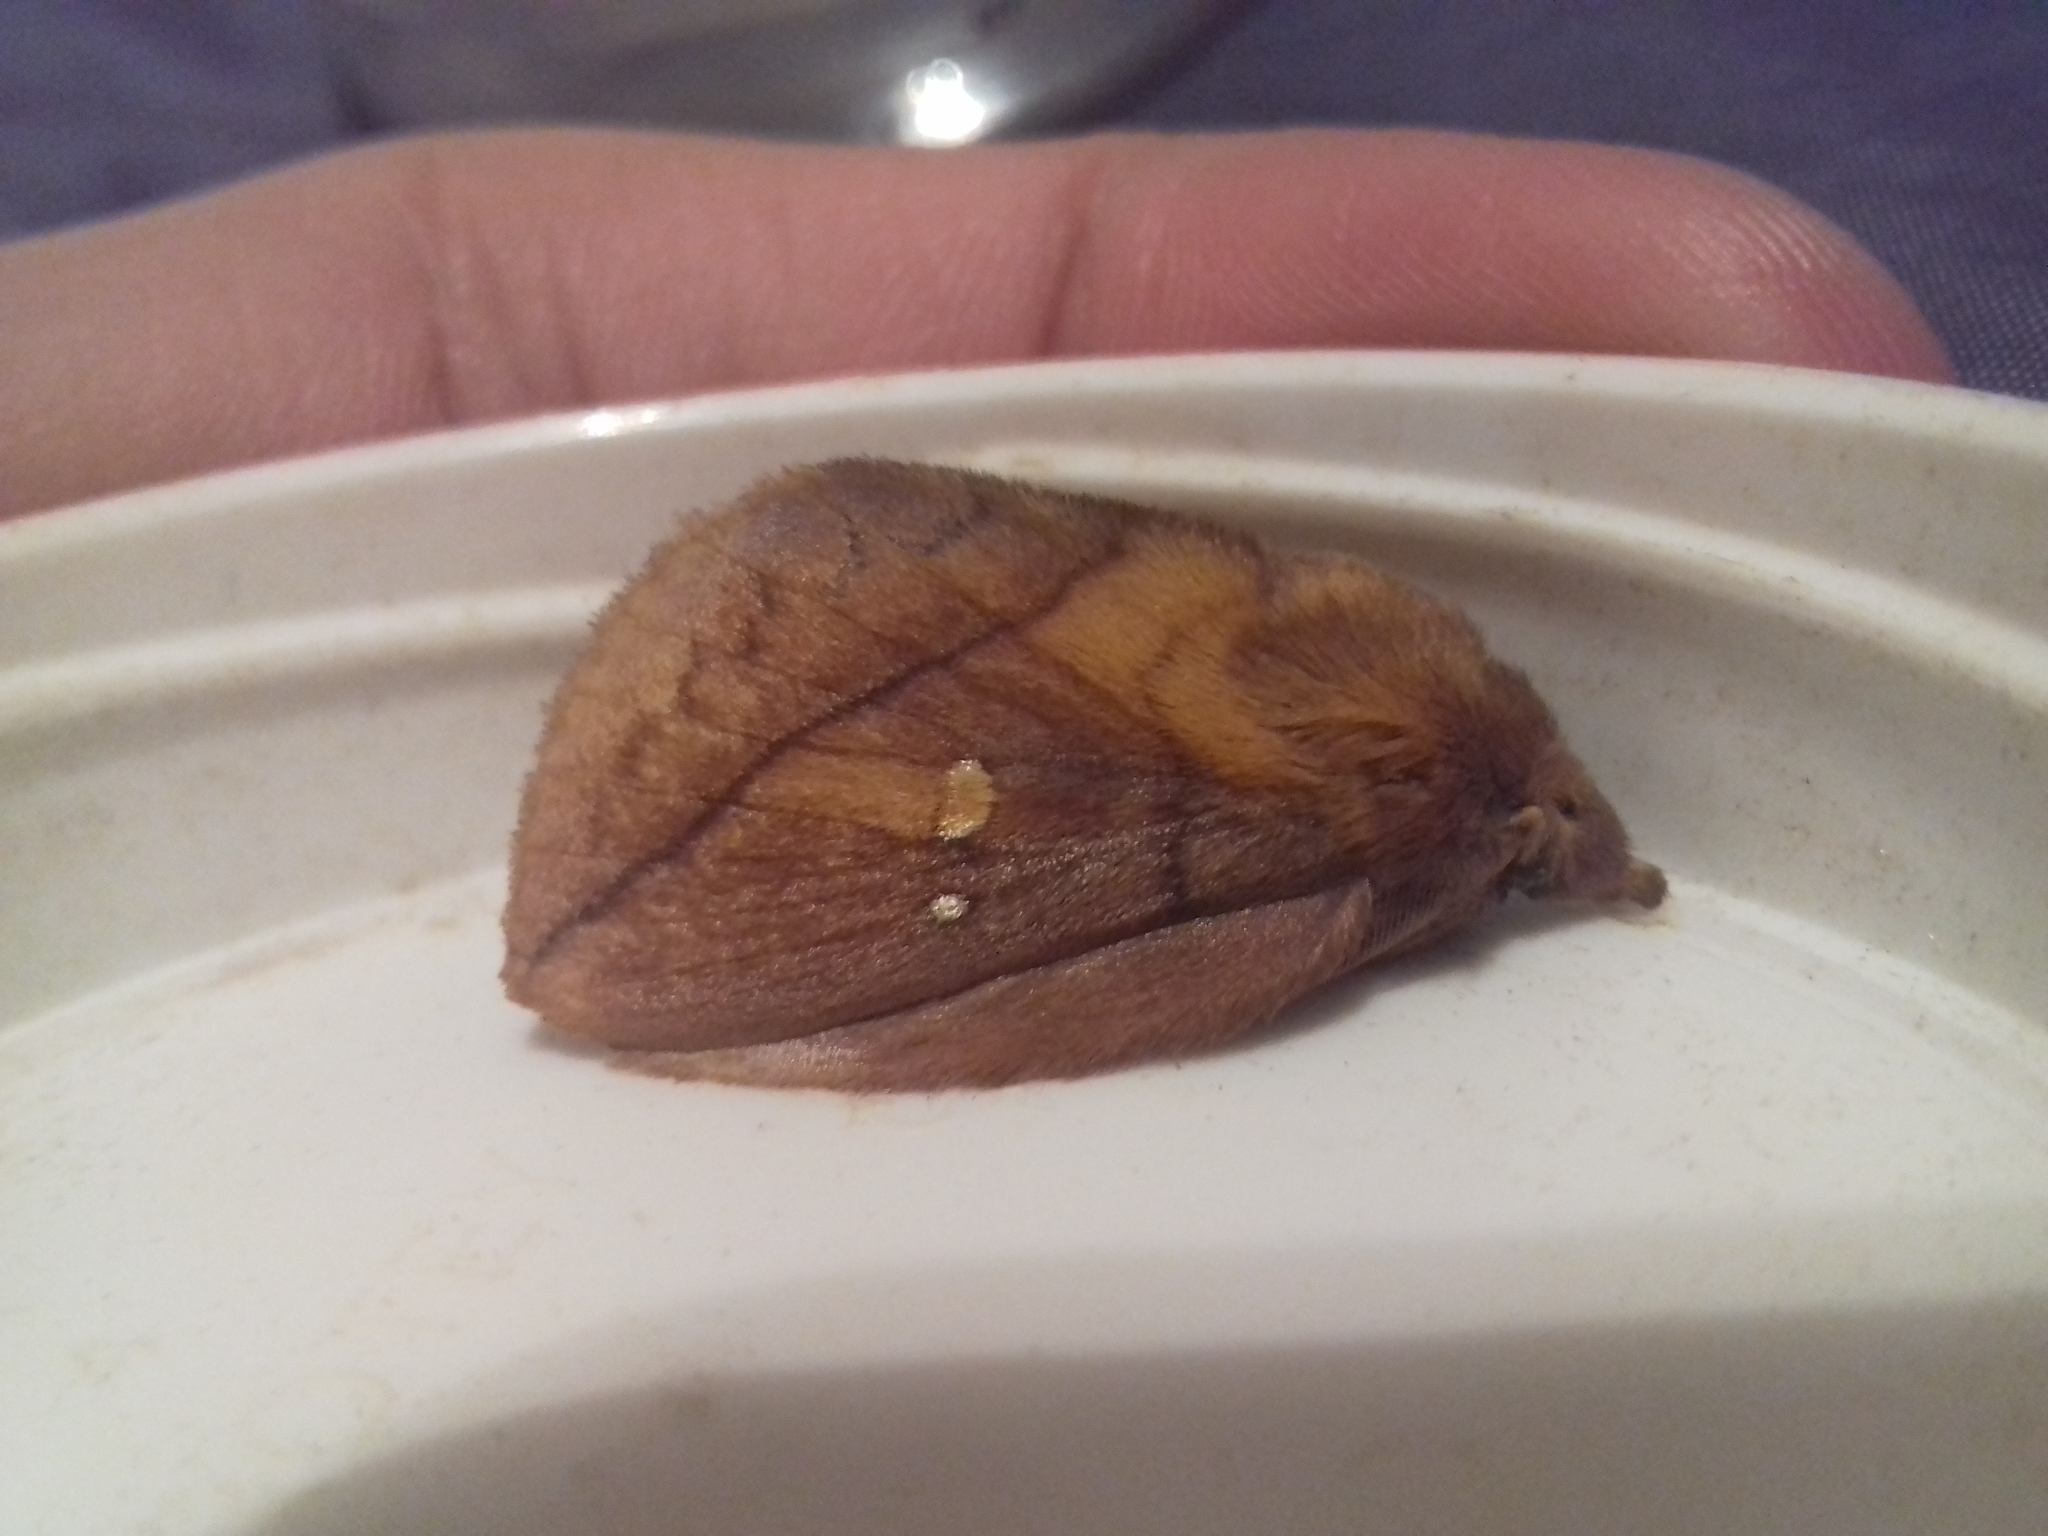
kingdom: Animalia
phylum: Arthropoda
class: Insecta
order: Lepidoptera
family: Lasiocampidae
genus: Euthrix
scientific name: Euthrix potatoria
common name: Drinker
